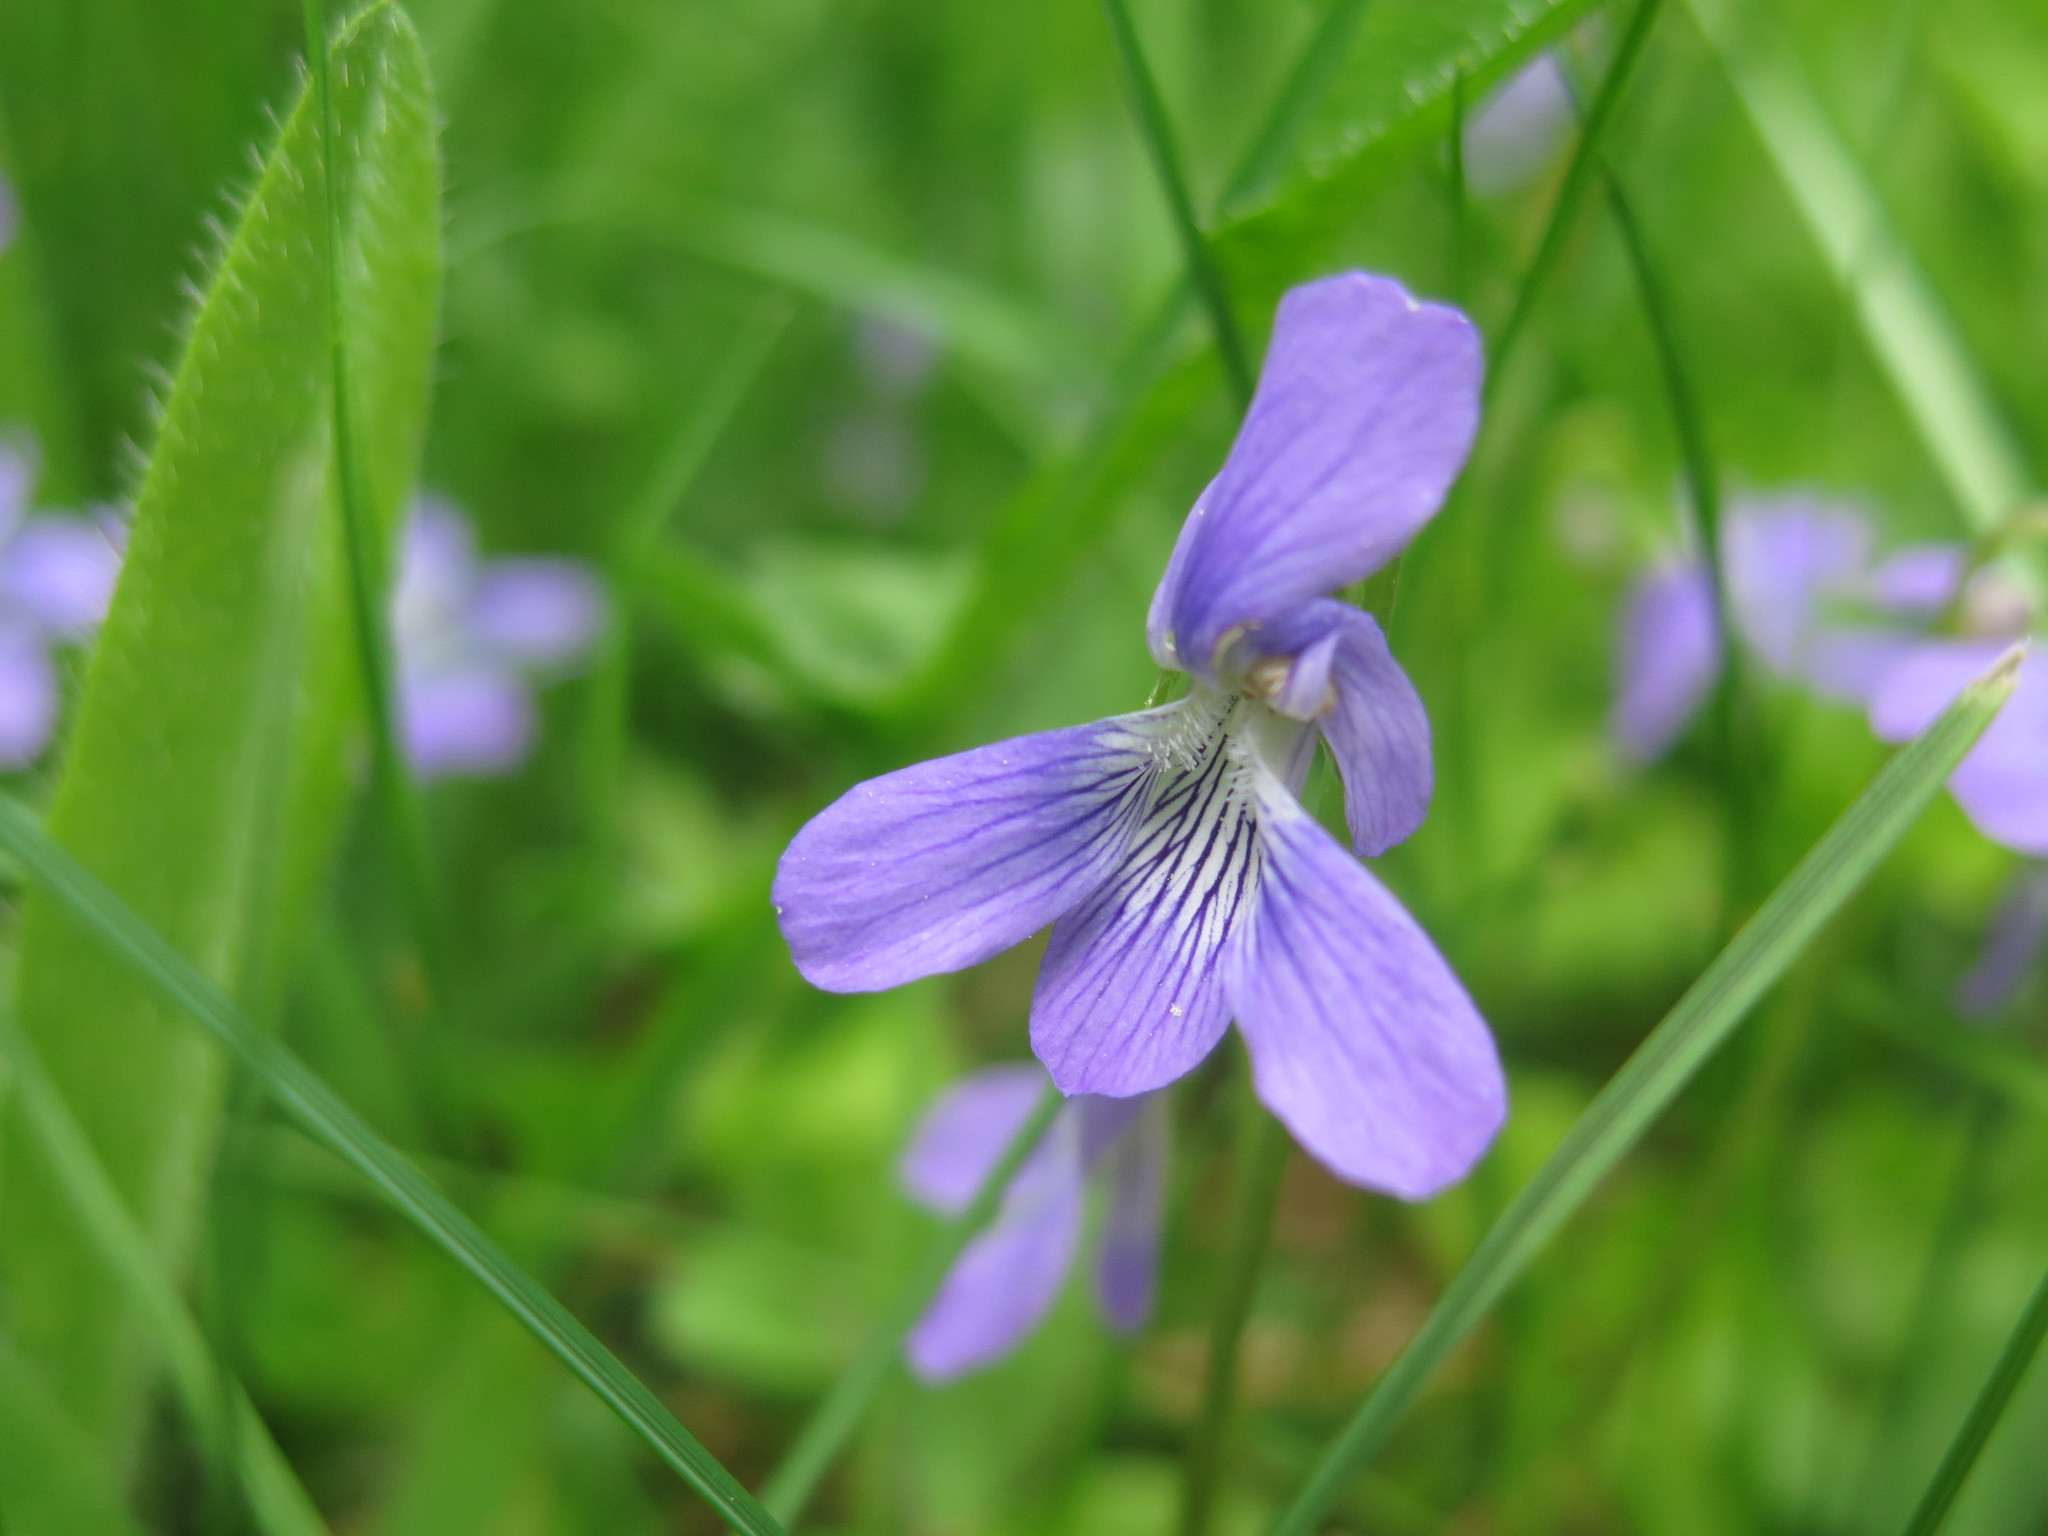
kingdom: Plantae
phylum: Tracheophyta
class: Magnoliopsida
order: Malpighiales
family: Violaceae
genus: Viola
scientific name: Viola cucullata
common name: Marsh blue violet
